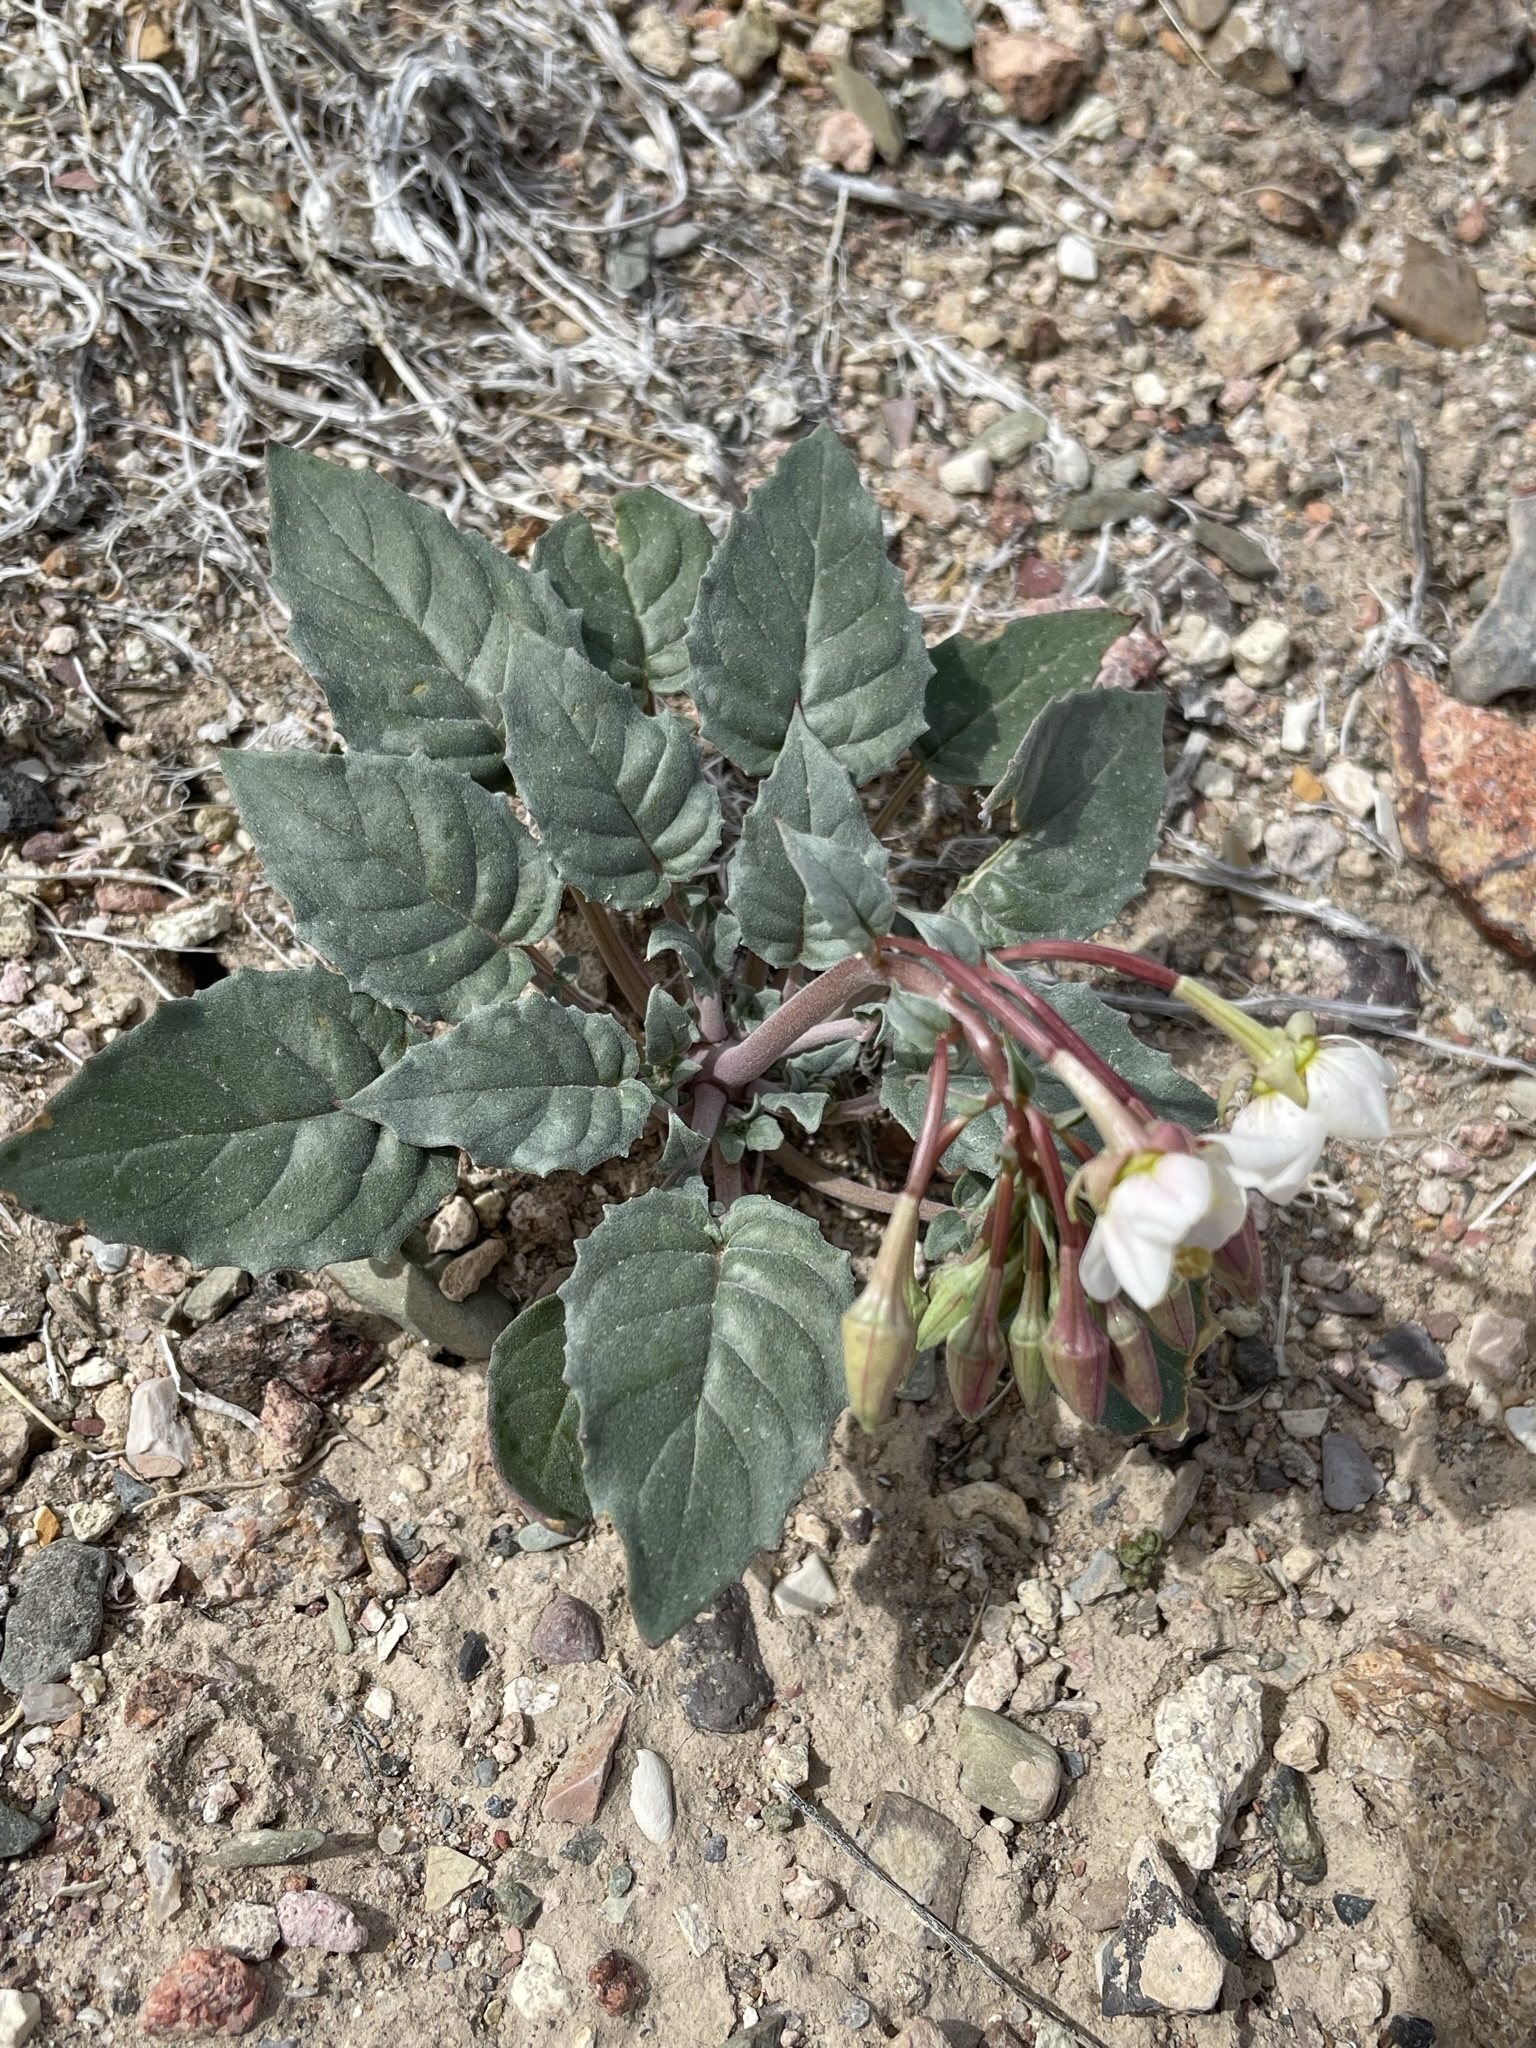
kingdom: Plantae
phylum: Tracheophyta
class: Magnoliopsida
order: Myrtales
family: Onagraceae
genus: Chylismia
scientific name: Chylismia claviformis
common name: Browneyes
